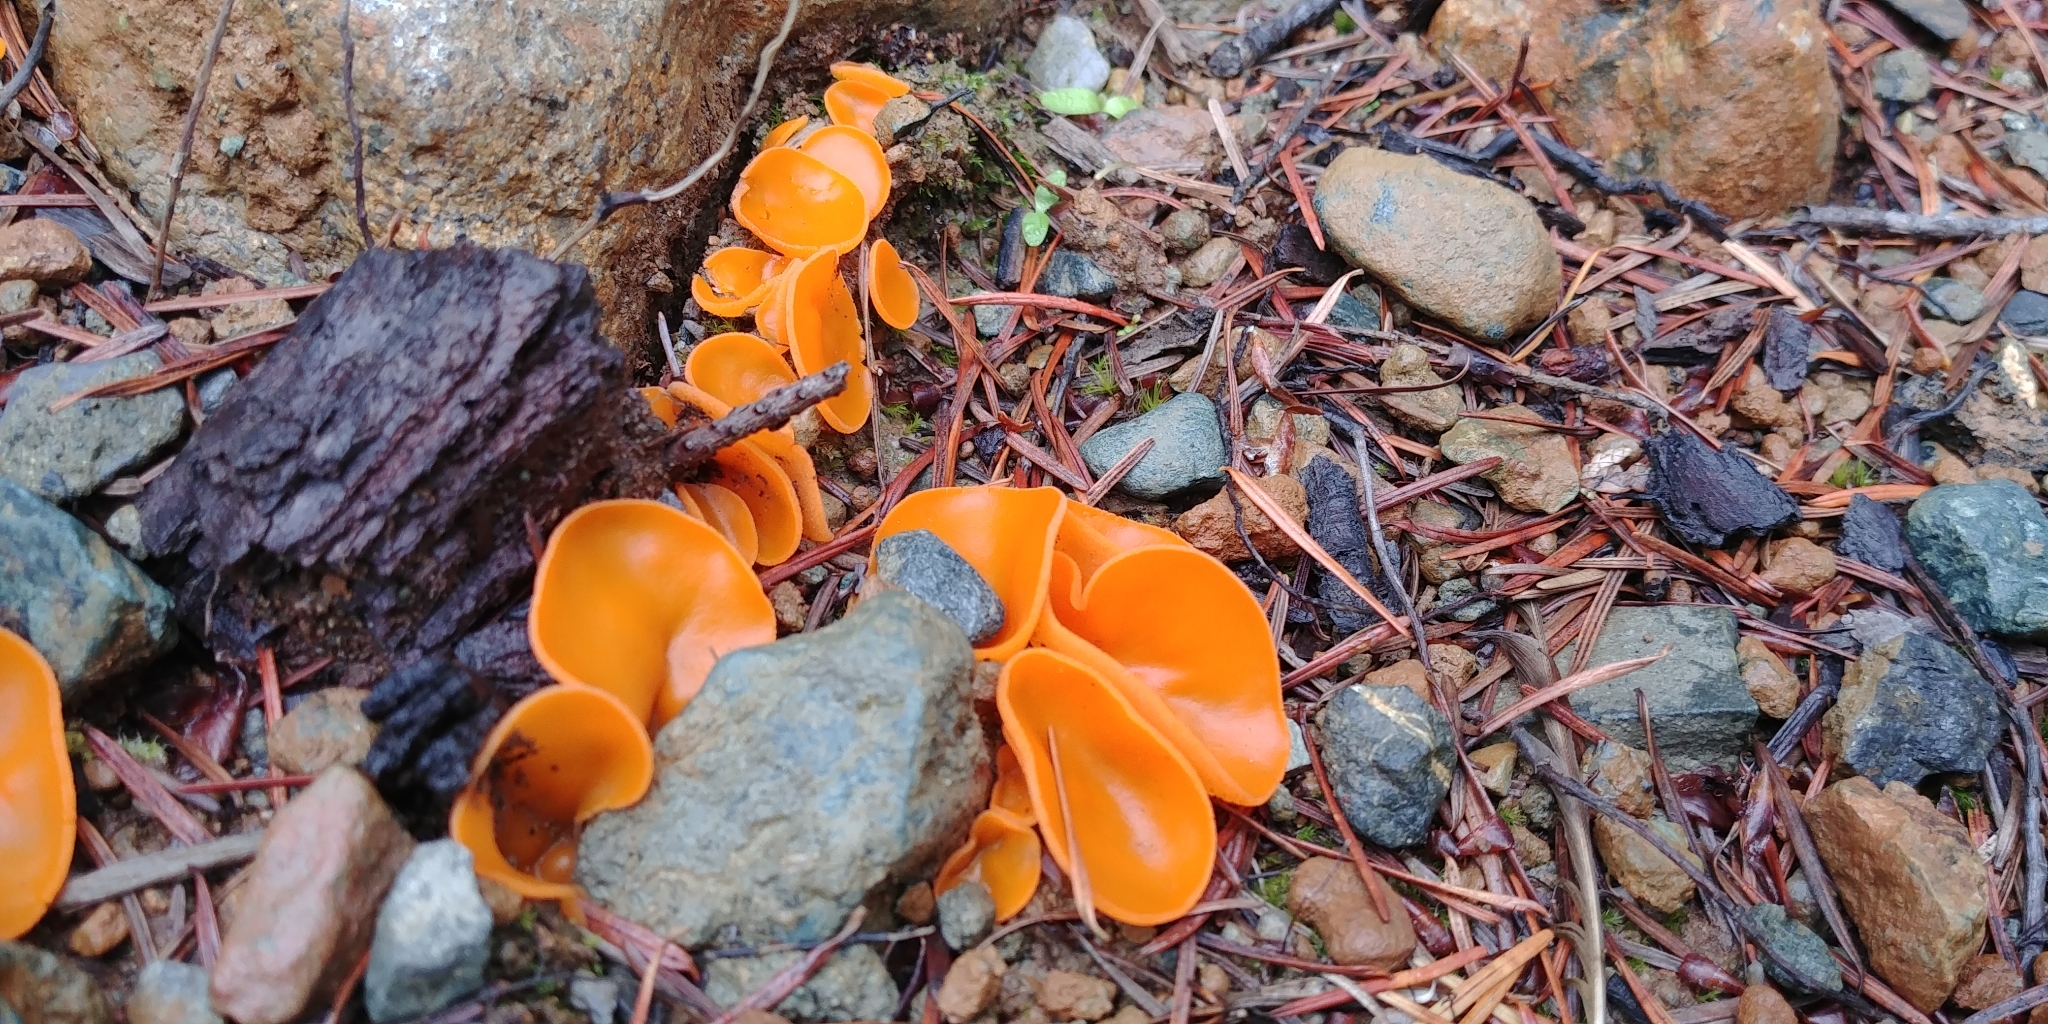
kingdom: Fungi
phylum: Ascomycota
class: Pezizomycetes
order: Pezizales
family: Pyronemataceae
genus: Aleuria
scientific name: Aleuria aurantia
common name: Orange peel fungus
